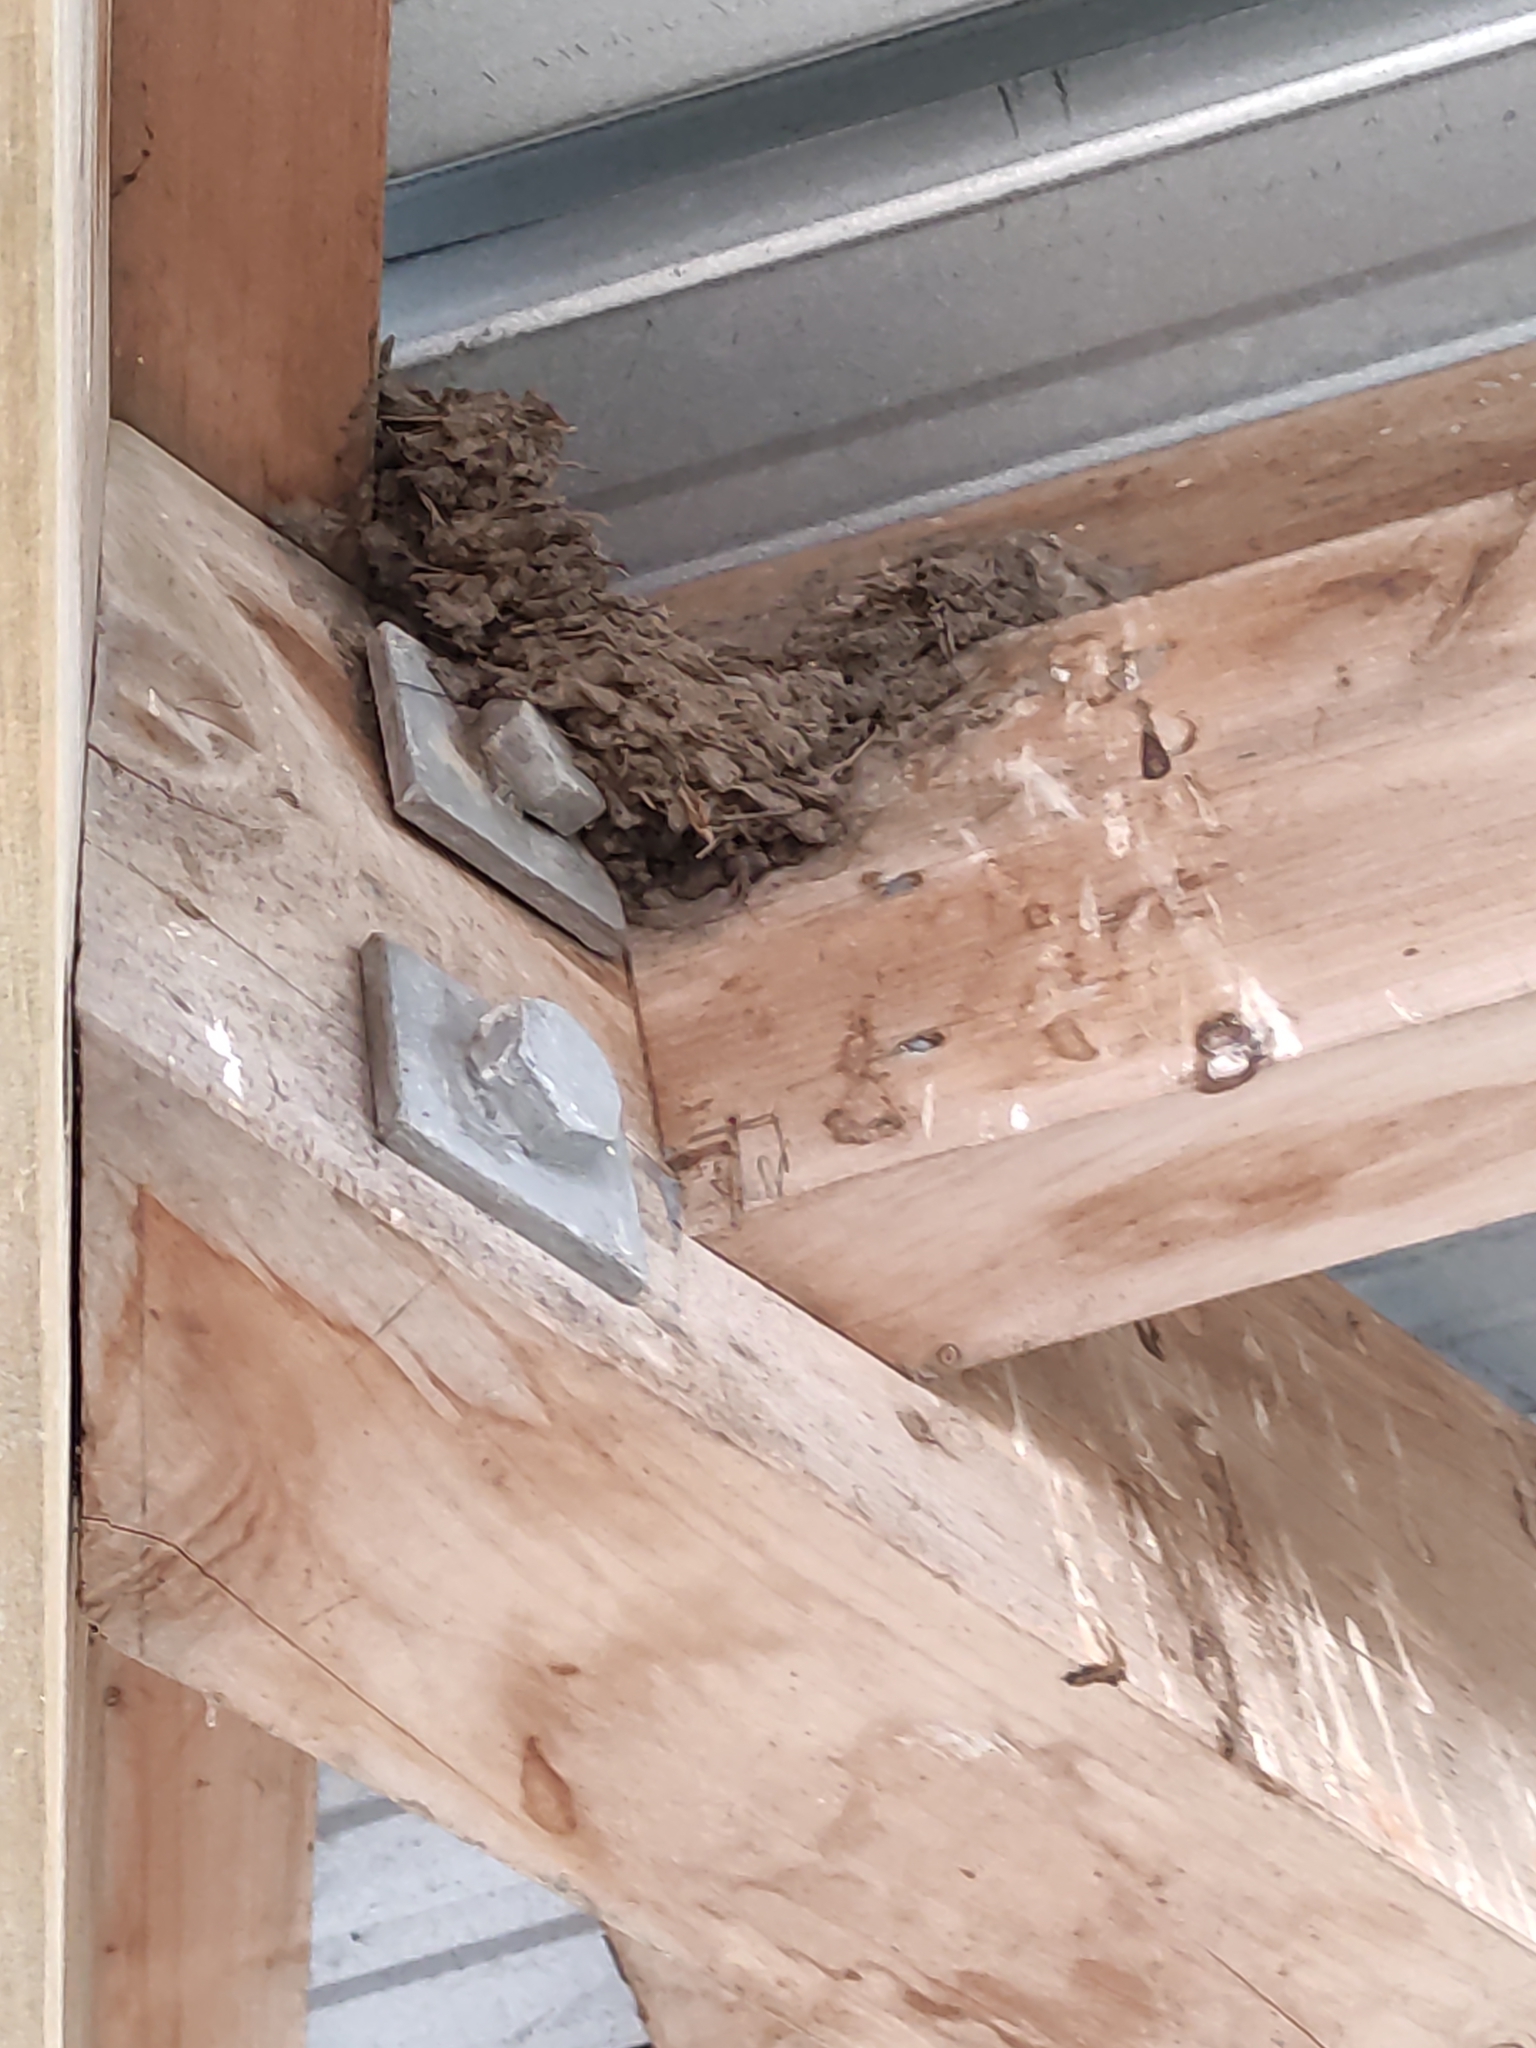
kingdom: Animalia
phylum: Chordata
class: Aves
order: Passeriformes
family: Hirundinidae
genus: Hirundo
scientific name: Hirundo neoxena
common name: Welcome swallow
